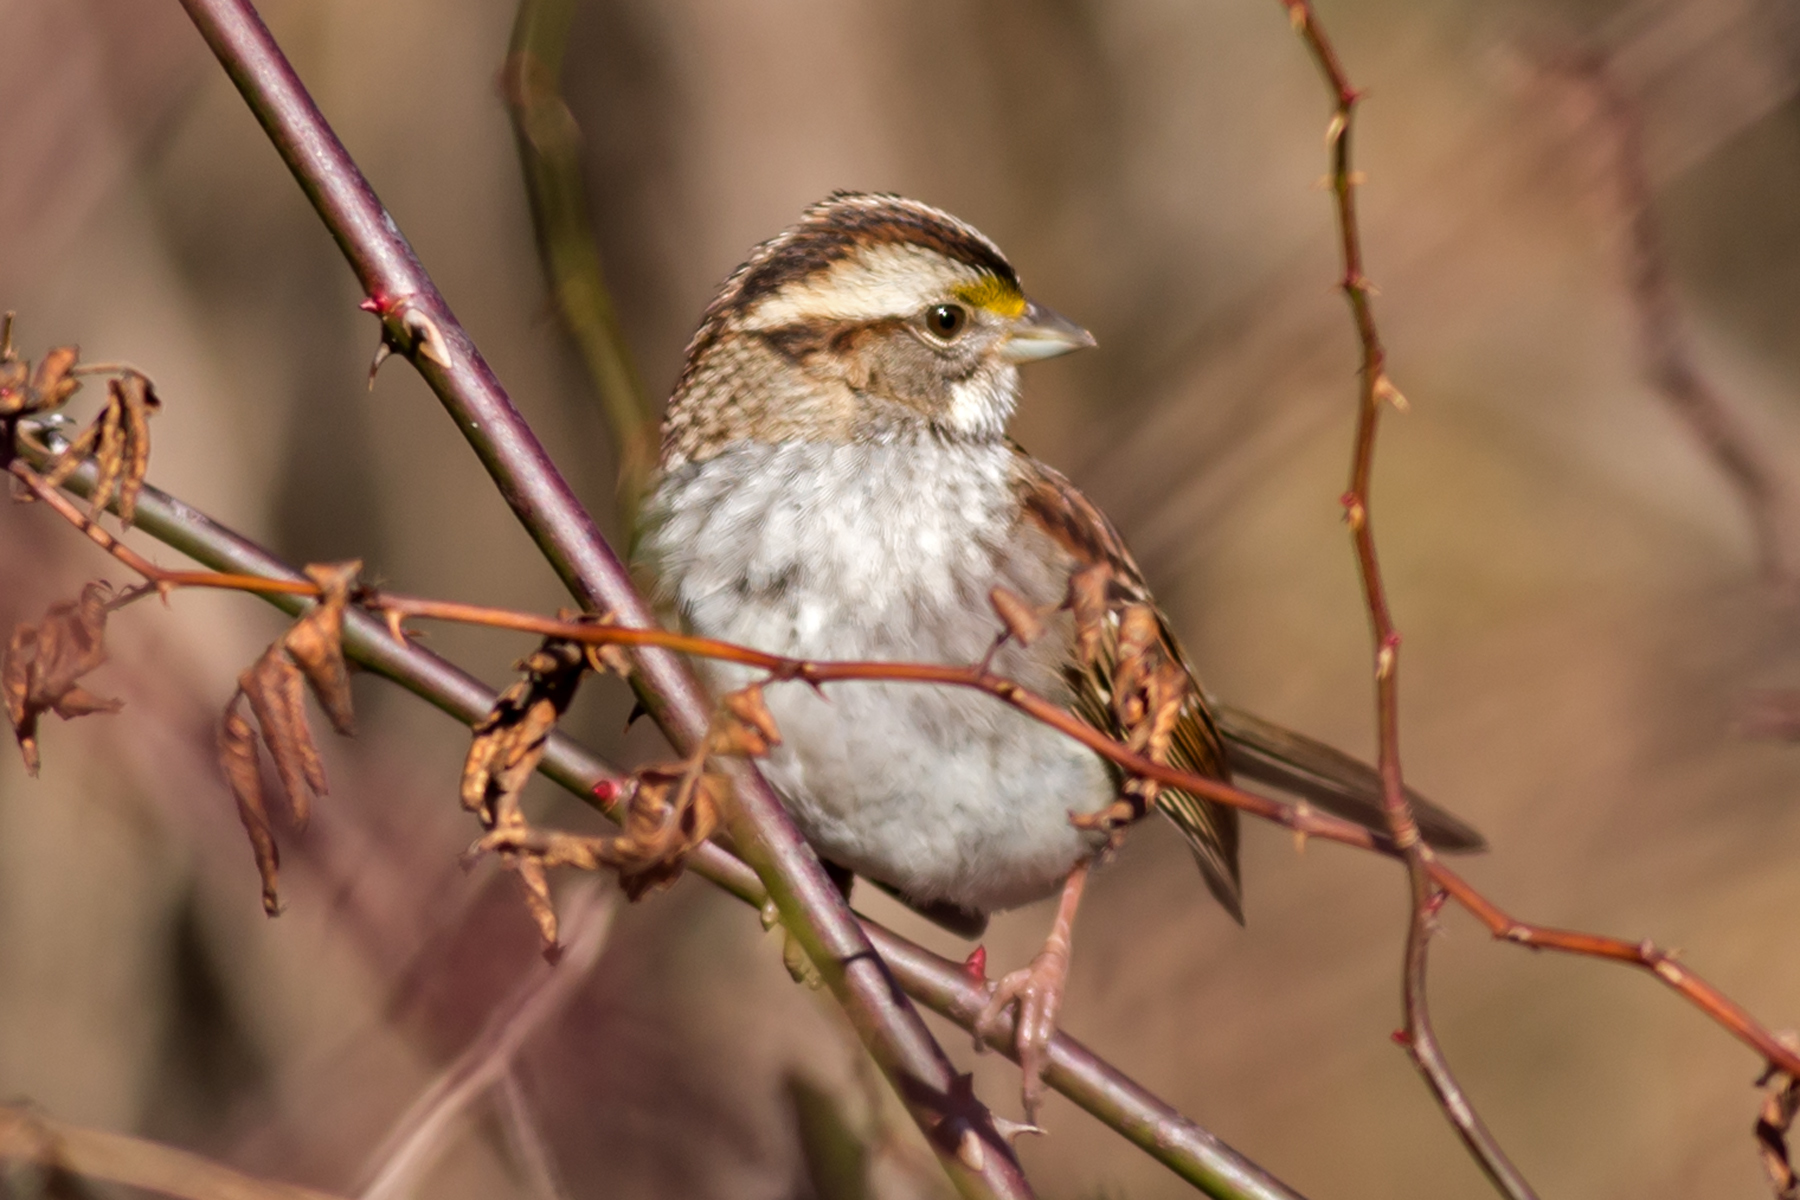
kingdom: Animalia
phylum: Chordata
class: Aves
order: Passeriformes
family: Passerellidae
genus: Zonotrichia
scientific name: Zonotrichia albicollis
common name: White-throated sparrow
